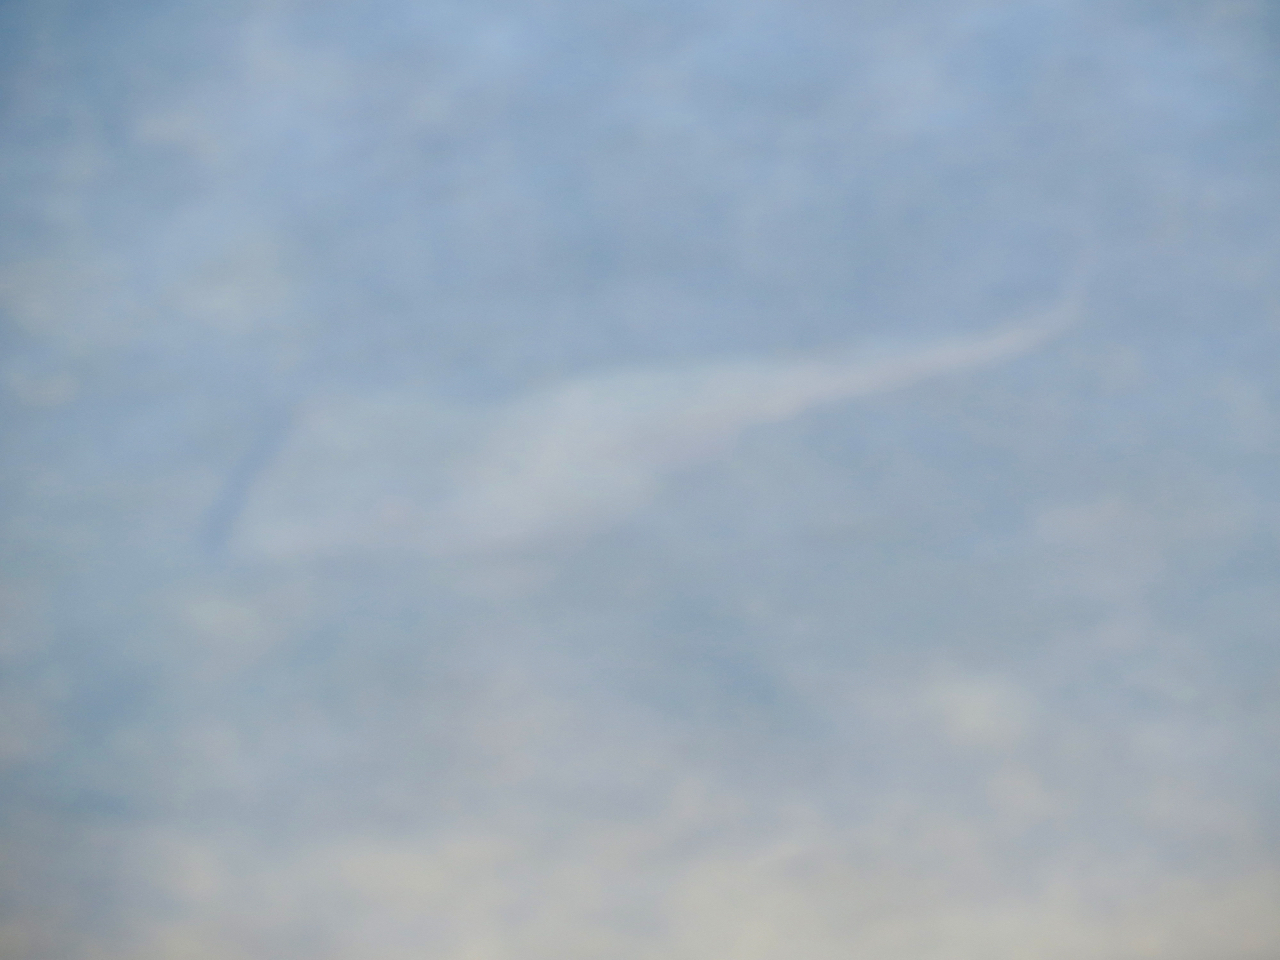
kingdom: Animalia
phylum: Chordata
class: Elasmobranchii
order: Rhinopristiformes
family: Rhinobatidae
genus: Pseudobatos
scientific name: Pseudobatos productus
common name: Shovelnose guitarfish
